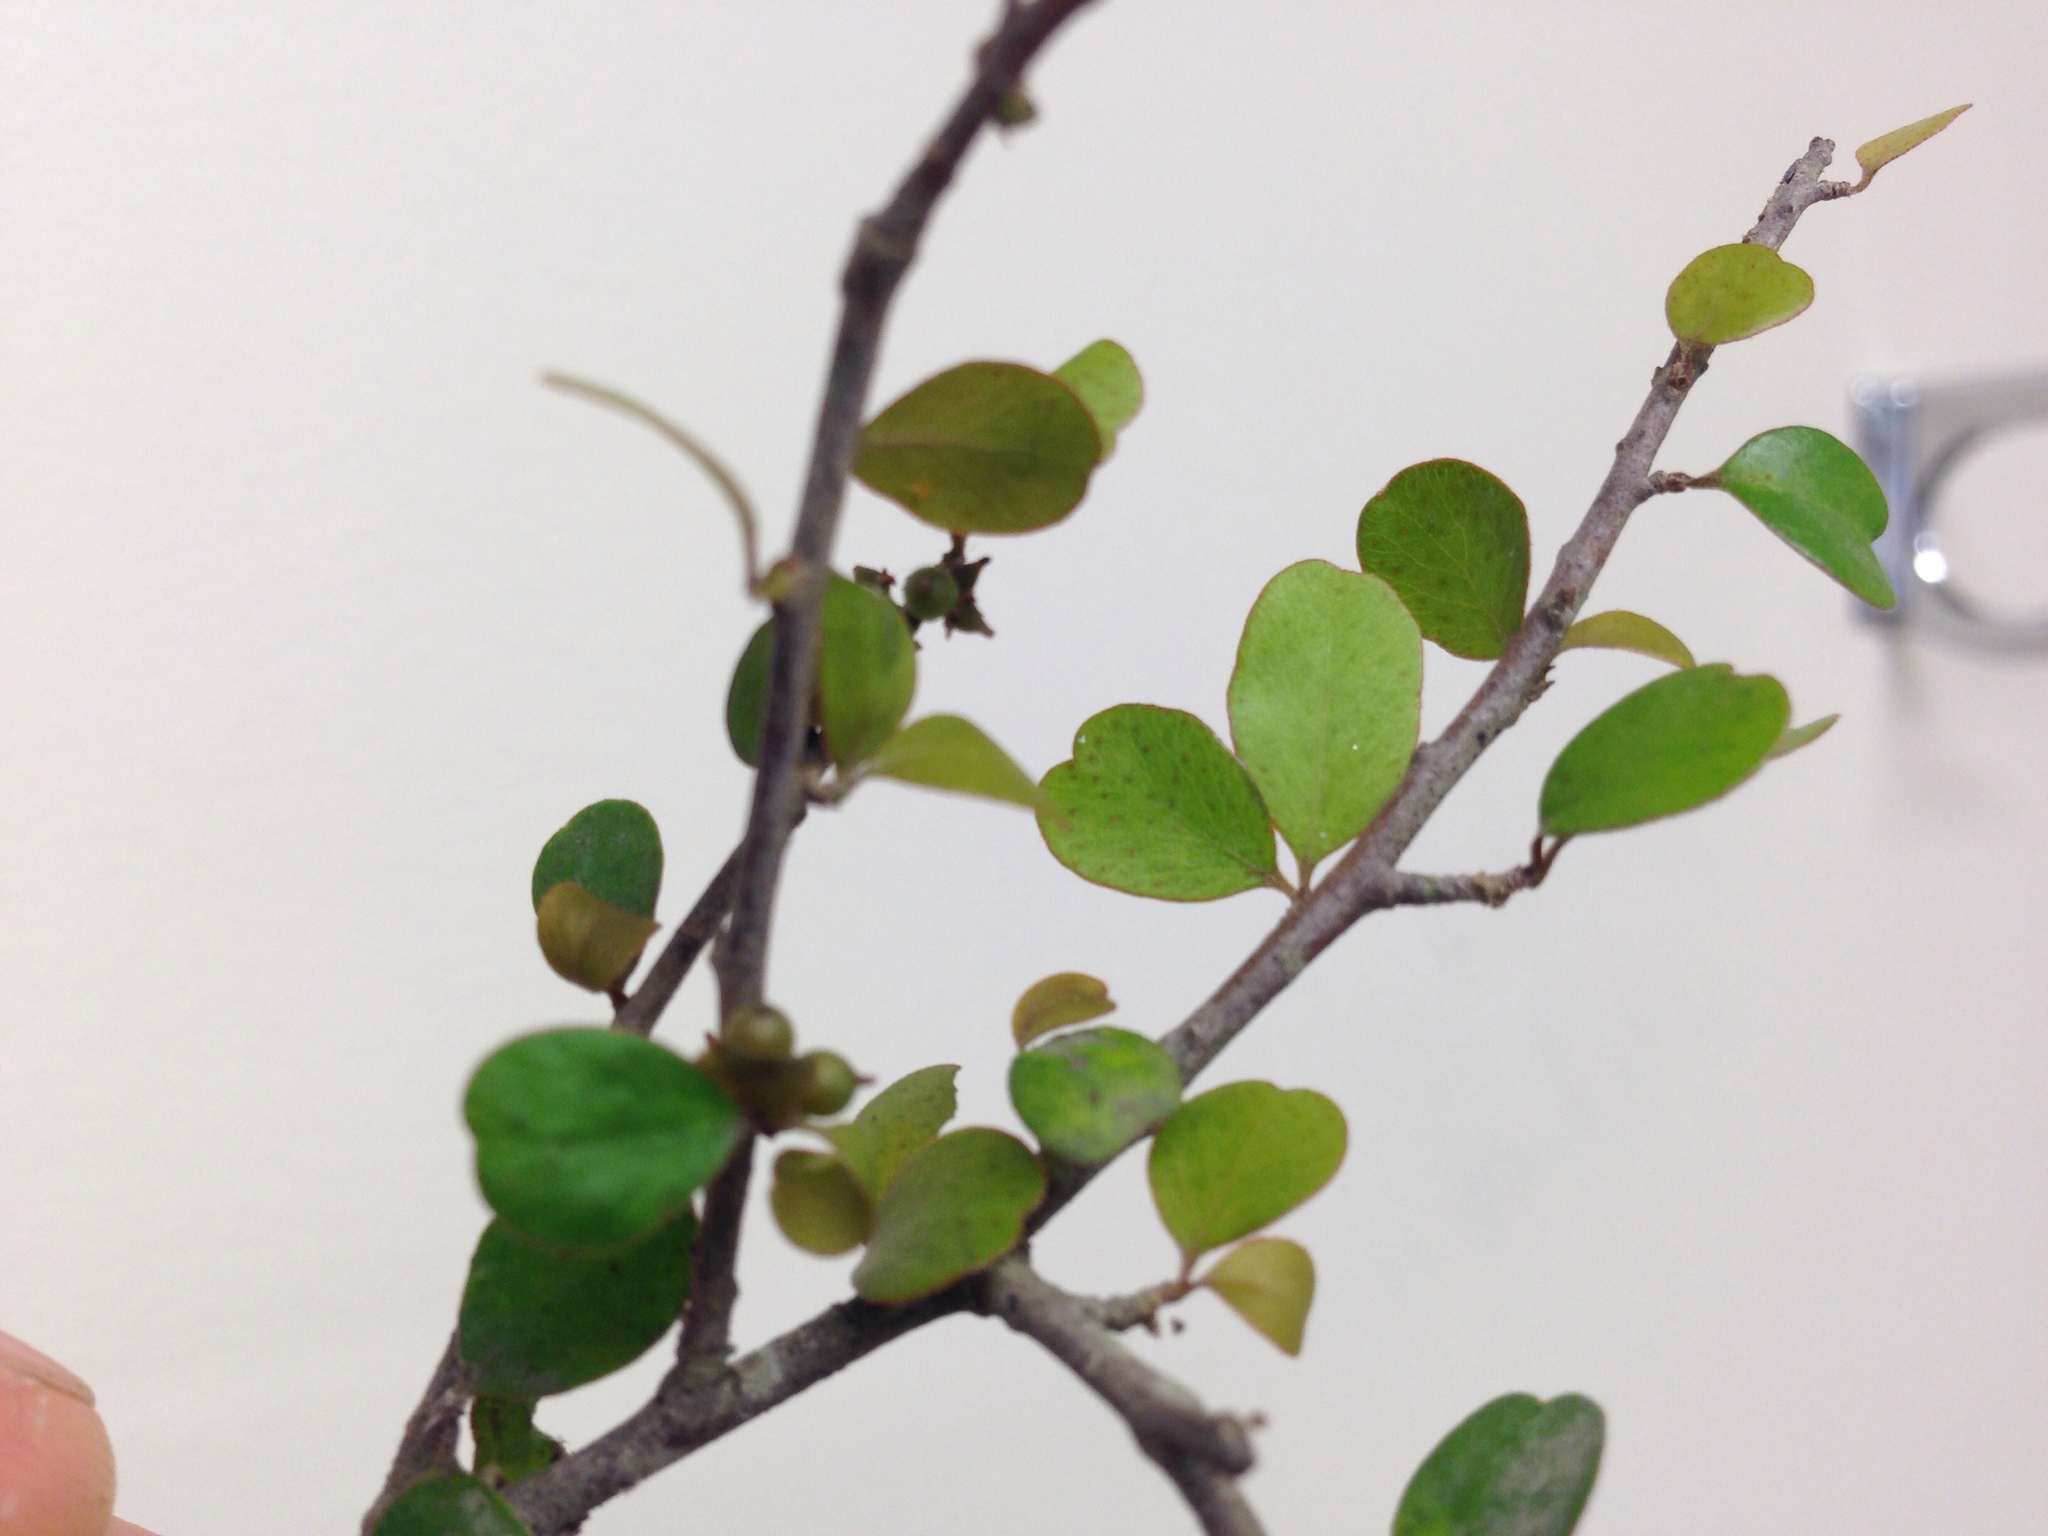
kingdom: Plantae
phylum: Tracheophyta
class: Magnoliopsida
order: Ericales
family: Primulaceae
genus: Myrsine
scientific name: Myrsine divaricata
